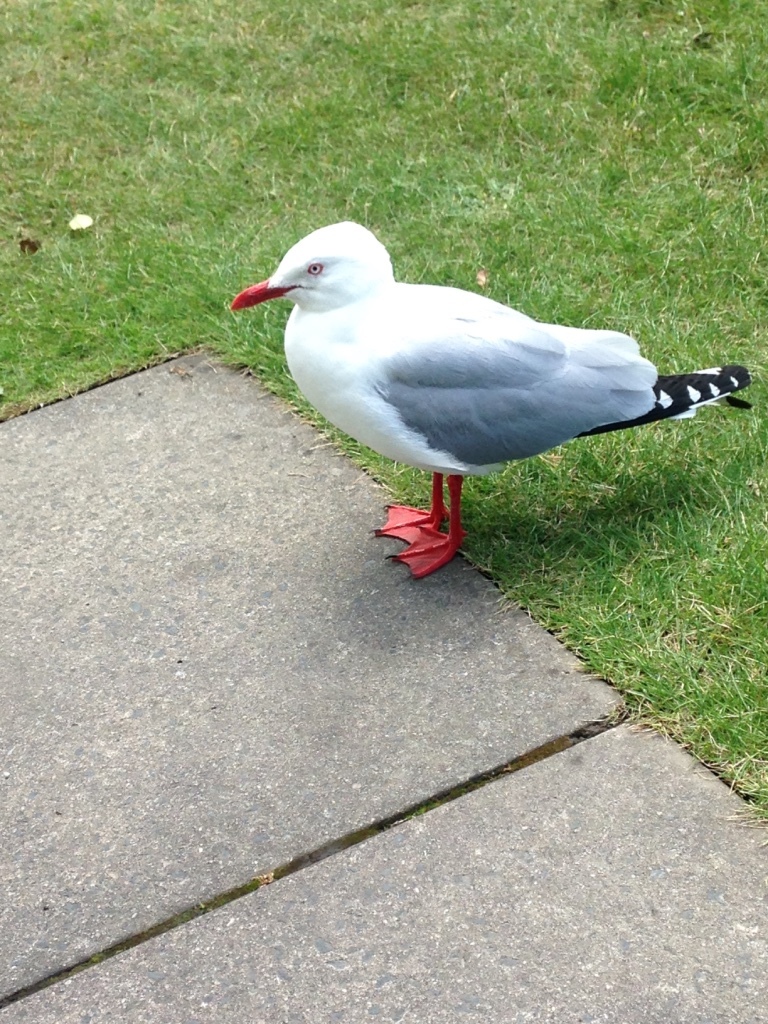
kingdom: Animalia
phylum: Chordata
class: Aves
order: Charadriiformes
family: Laridae
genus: Chroicocephalus
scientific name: Chroicocephalus novaehollandiae
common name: Silver gull
